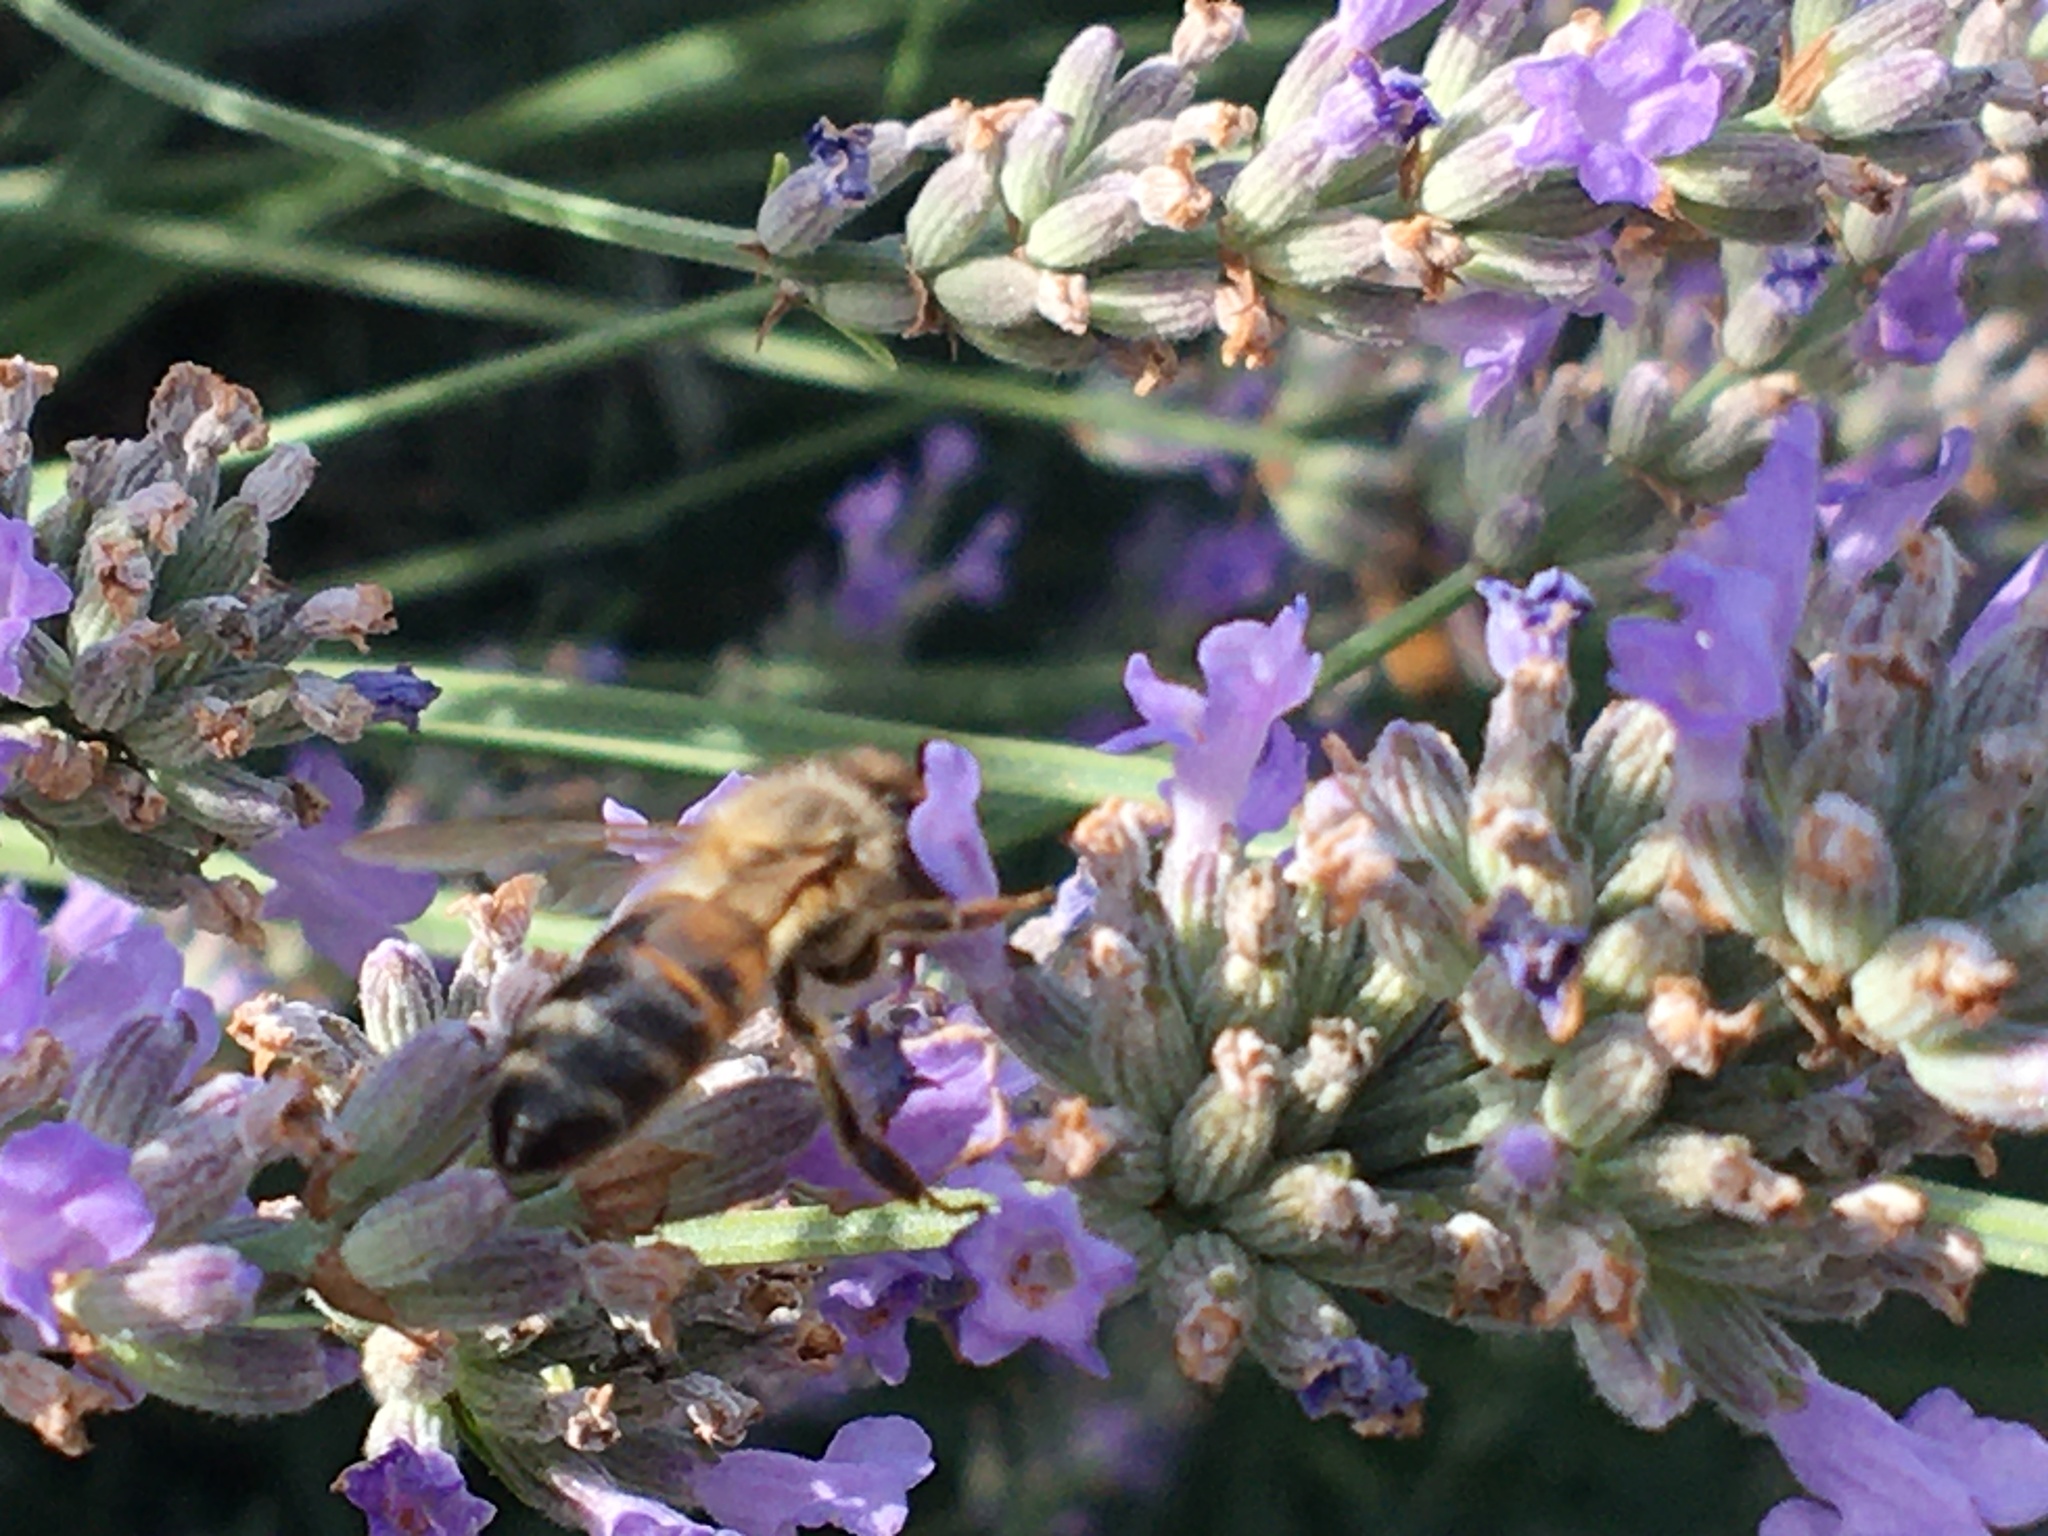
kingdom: Animalia
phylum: Arthropoda
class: Insecta
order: Hymenoptera
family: Apidae
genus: Apis
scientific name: Apis mellifera
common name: Honey bee
